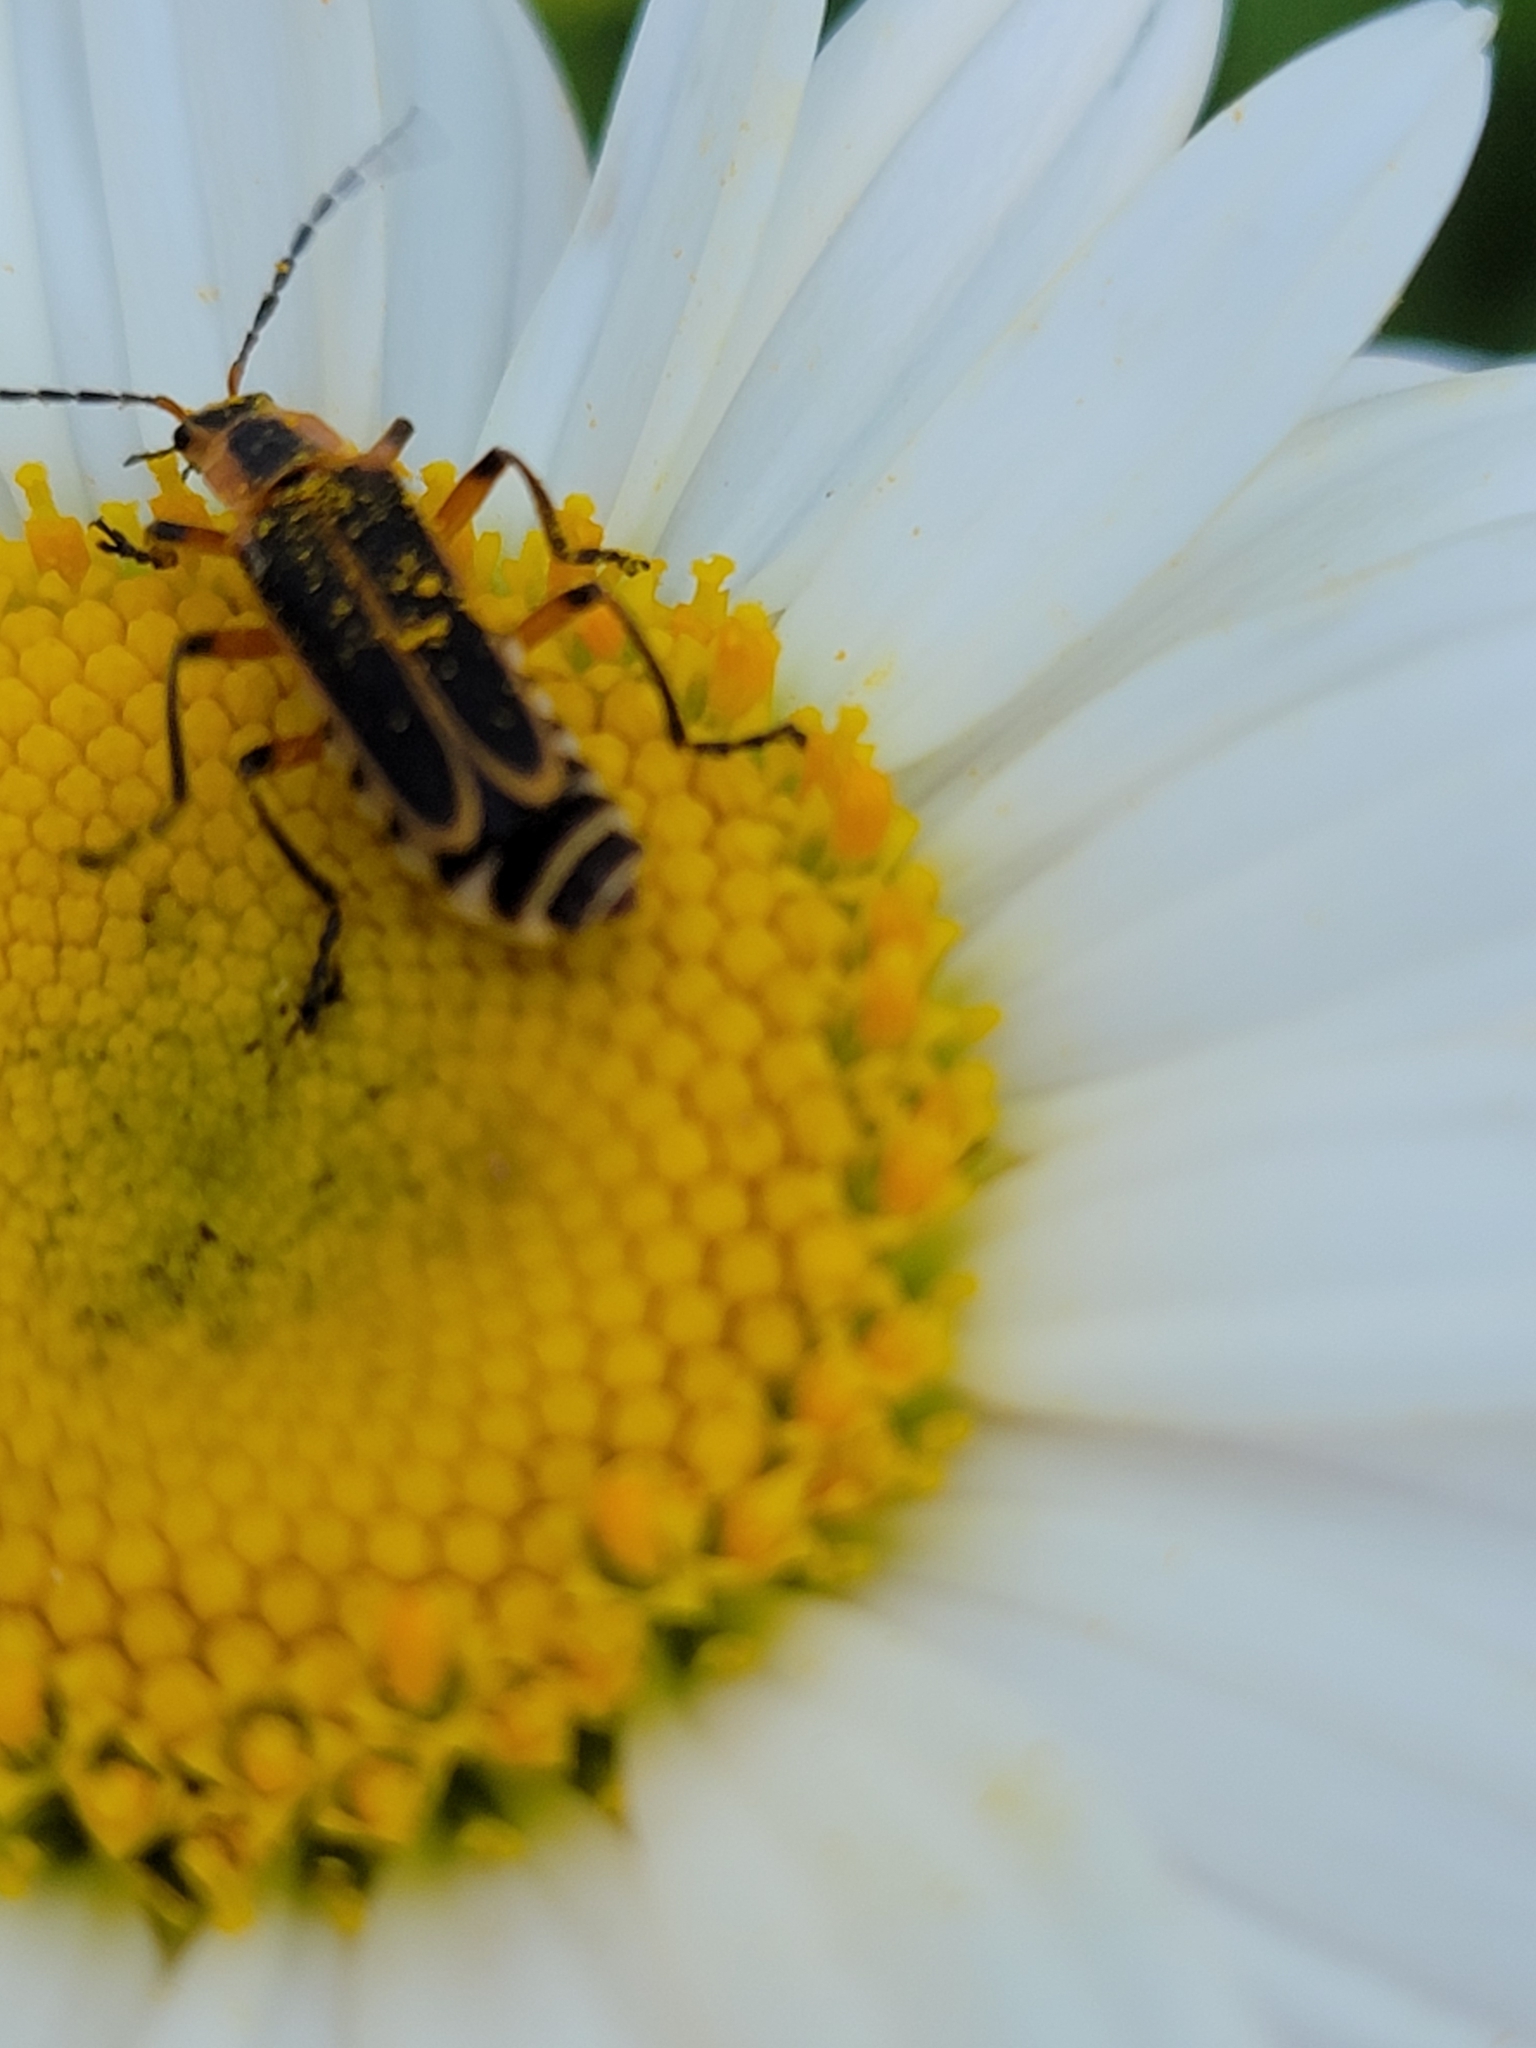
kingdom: Animalia
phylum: Arthropoda
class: Insecta
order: Coleoptera
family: Cantharidae
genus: Chauliognathus
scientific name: Chauliognathus marginatus
